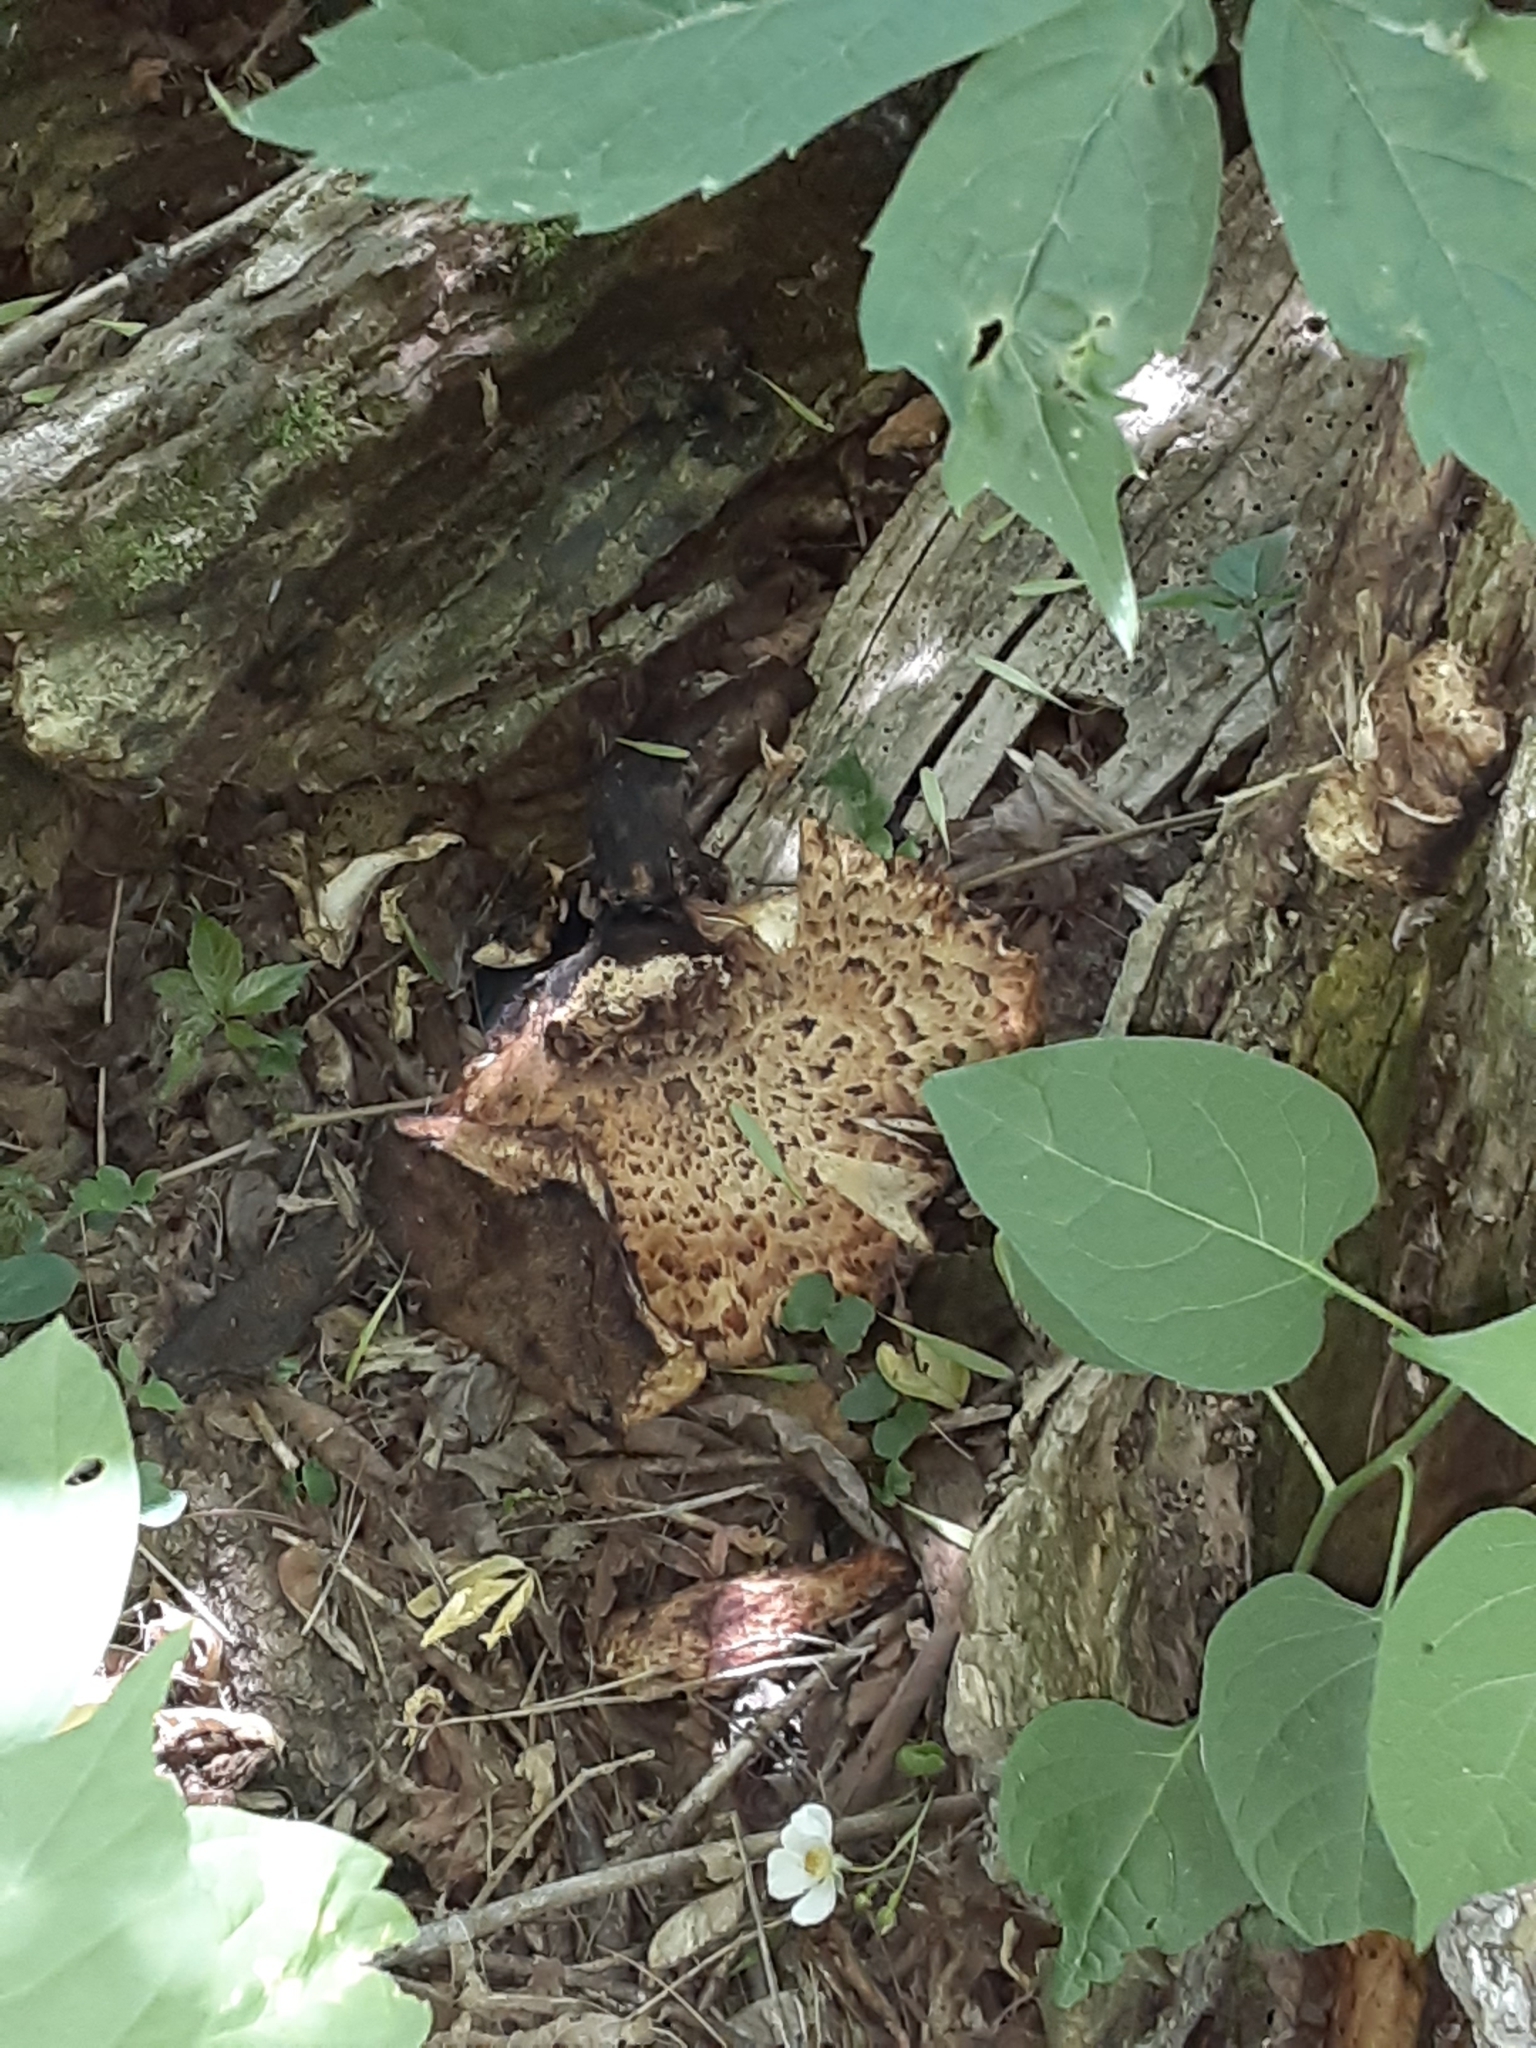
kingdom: Fungi
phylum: Basidiomycota
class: Agaricomycetes
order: Polyporales
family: Polyporaceae
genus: Cerioporus
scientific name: Cerioporus squamosus
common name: Dryad's saddle
